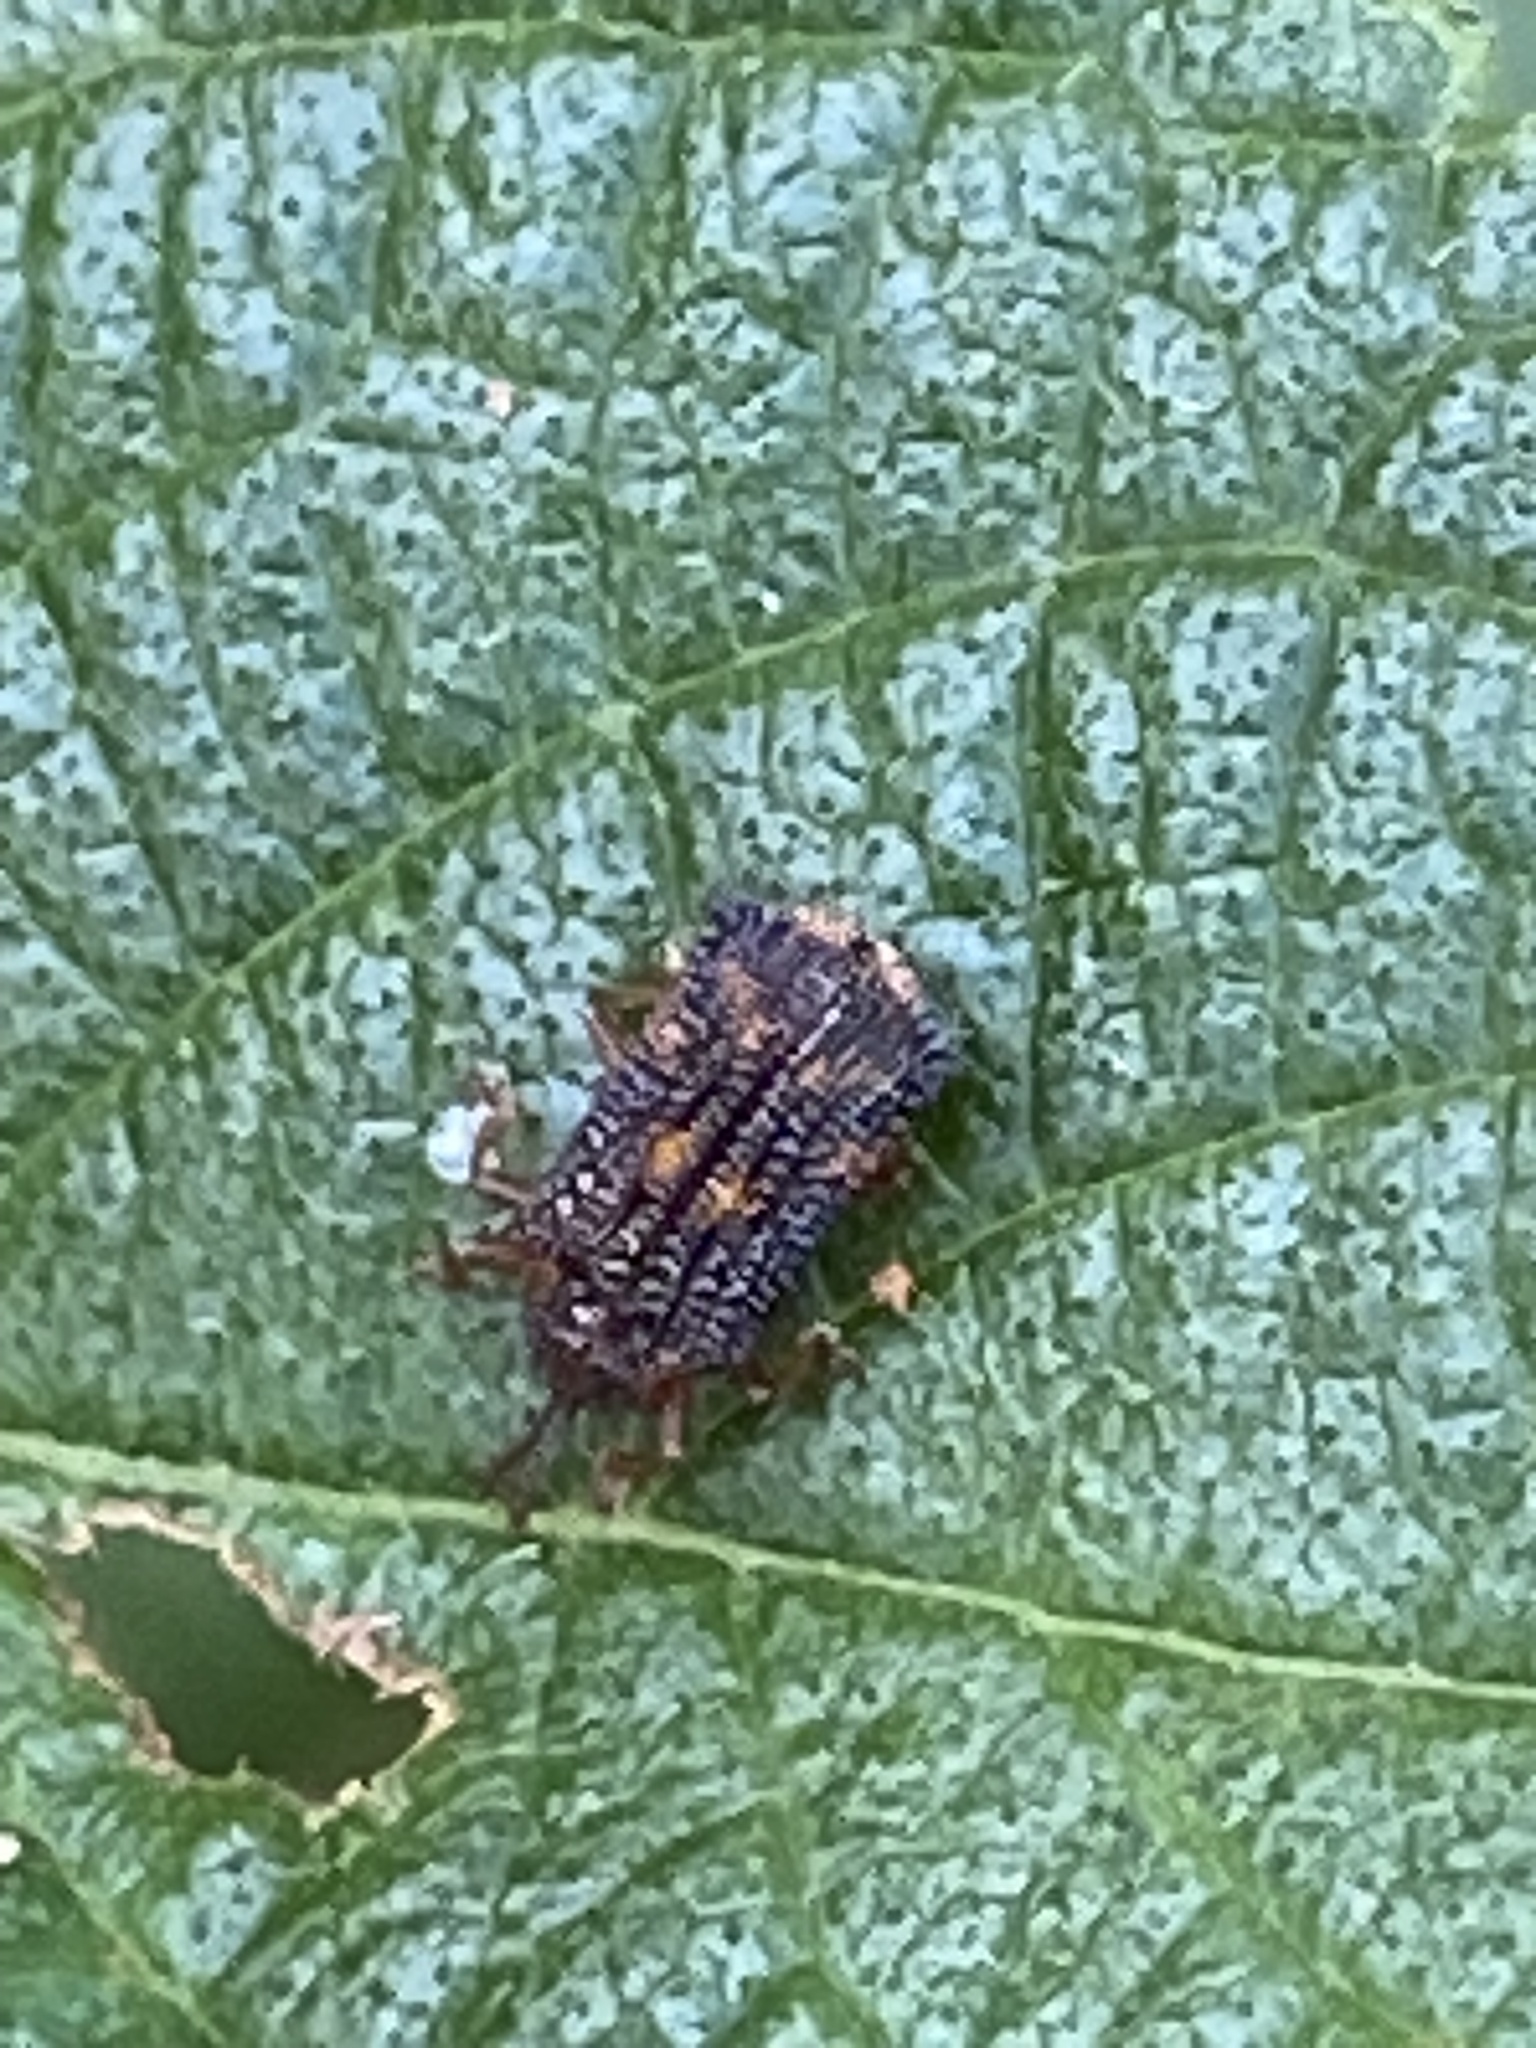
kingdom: Animalia
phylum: Arthropoda
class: Insecta
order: Coleoptera
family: Chrysomelidae
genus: Uroplata
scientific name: Uroplata girardi
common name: Lantana leafminer
